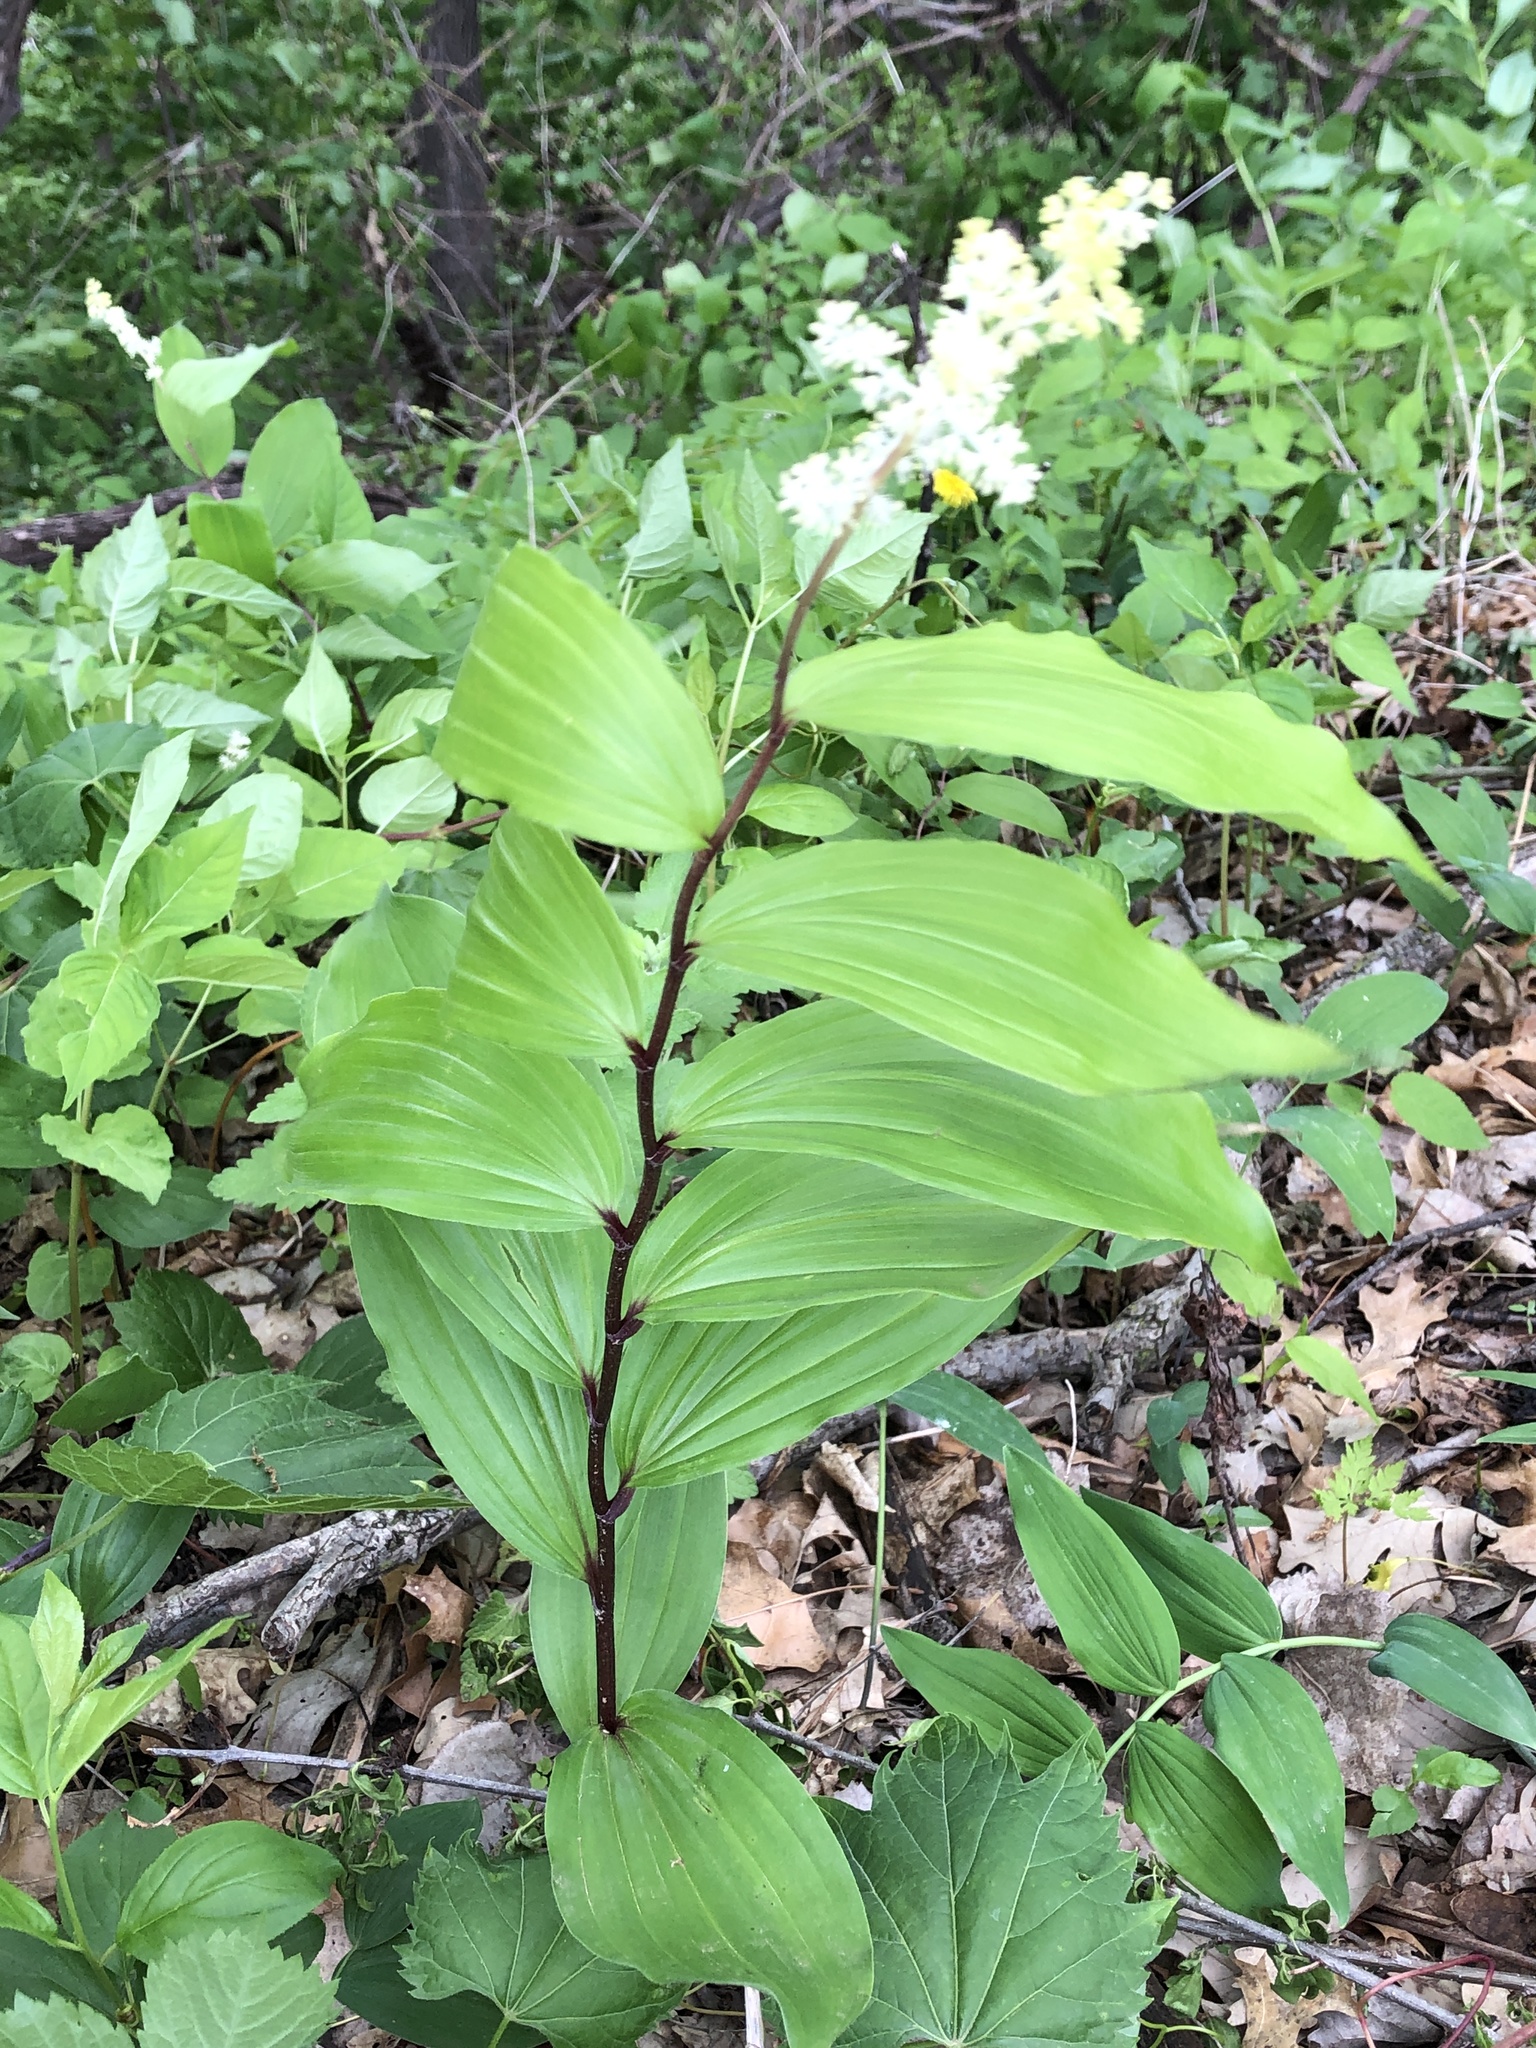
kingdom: Plantae
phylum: Tracheophyta
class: Liliopsida
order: Asparagales
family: Asparagaceae
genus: Maianthemum
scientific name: Maianthemum racemosum
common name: False spikenard
